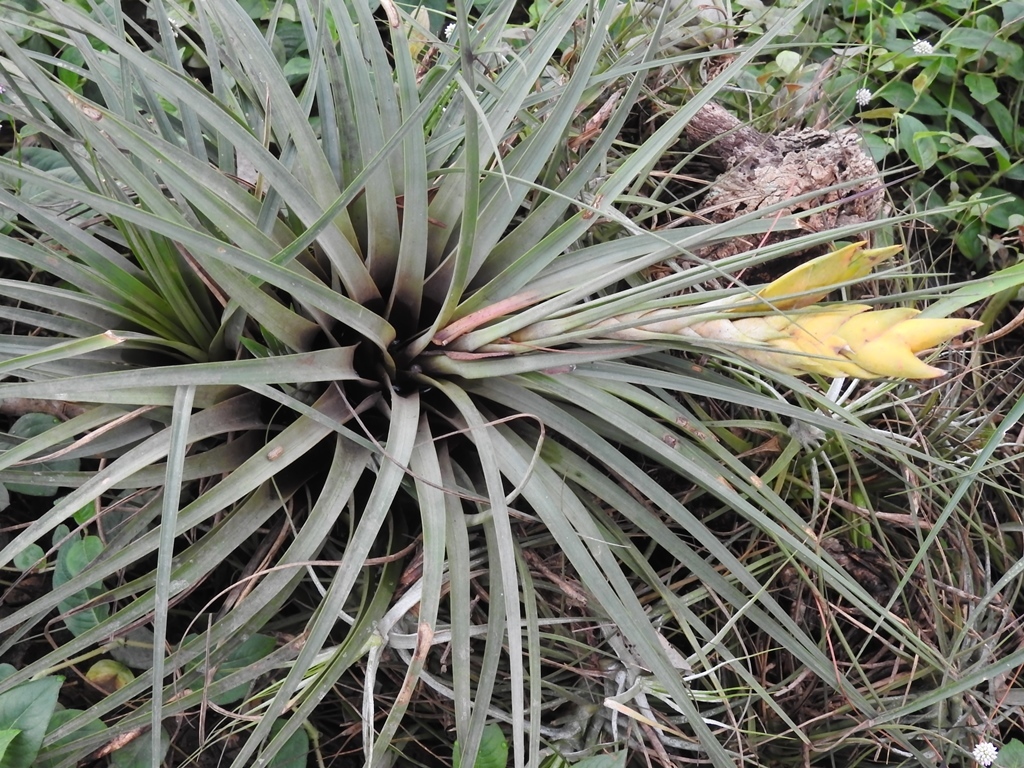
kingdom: Plantae
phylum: Tracheophyta
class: Liliopsida
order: Poales
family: Bromeliaceae
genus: Tillandsia
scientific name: Tillandsia flavobracteata
